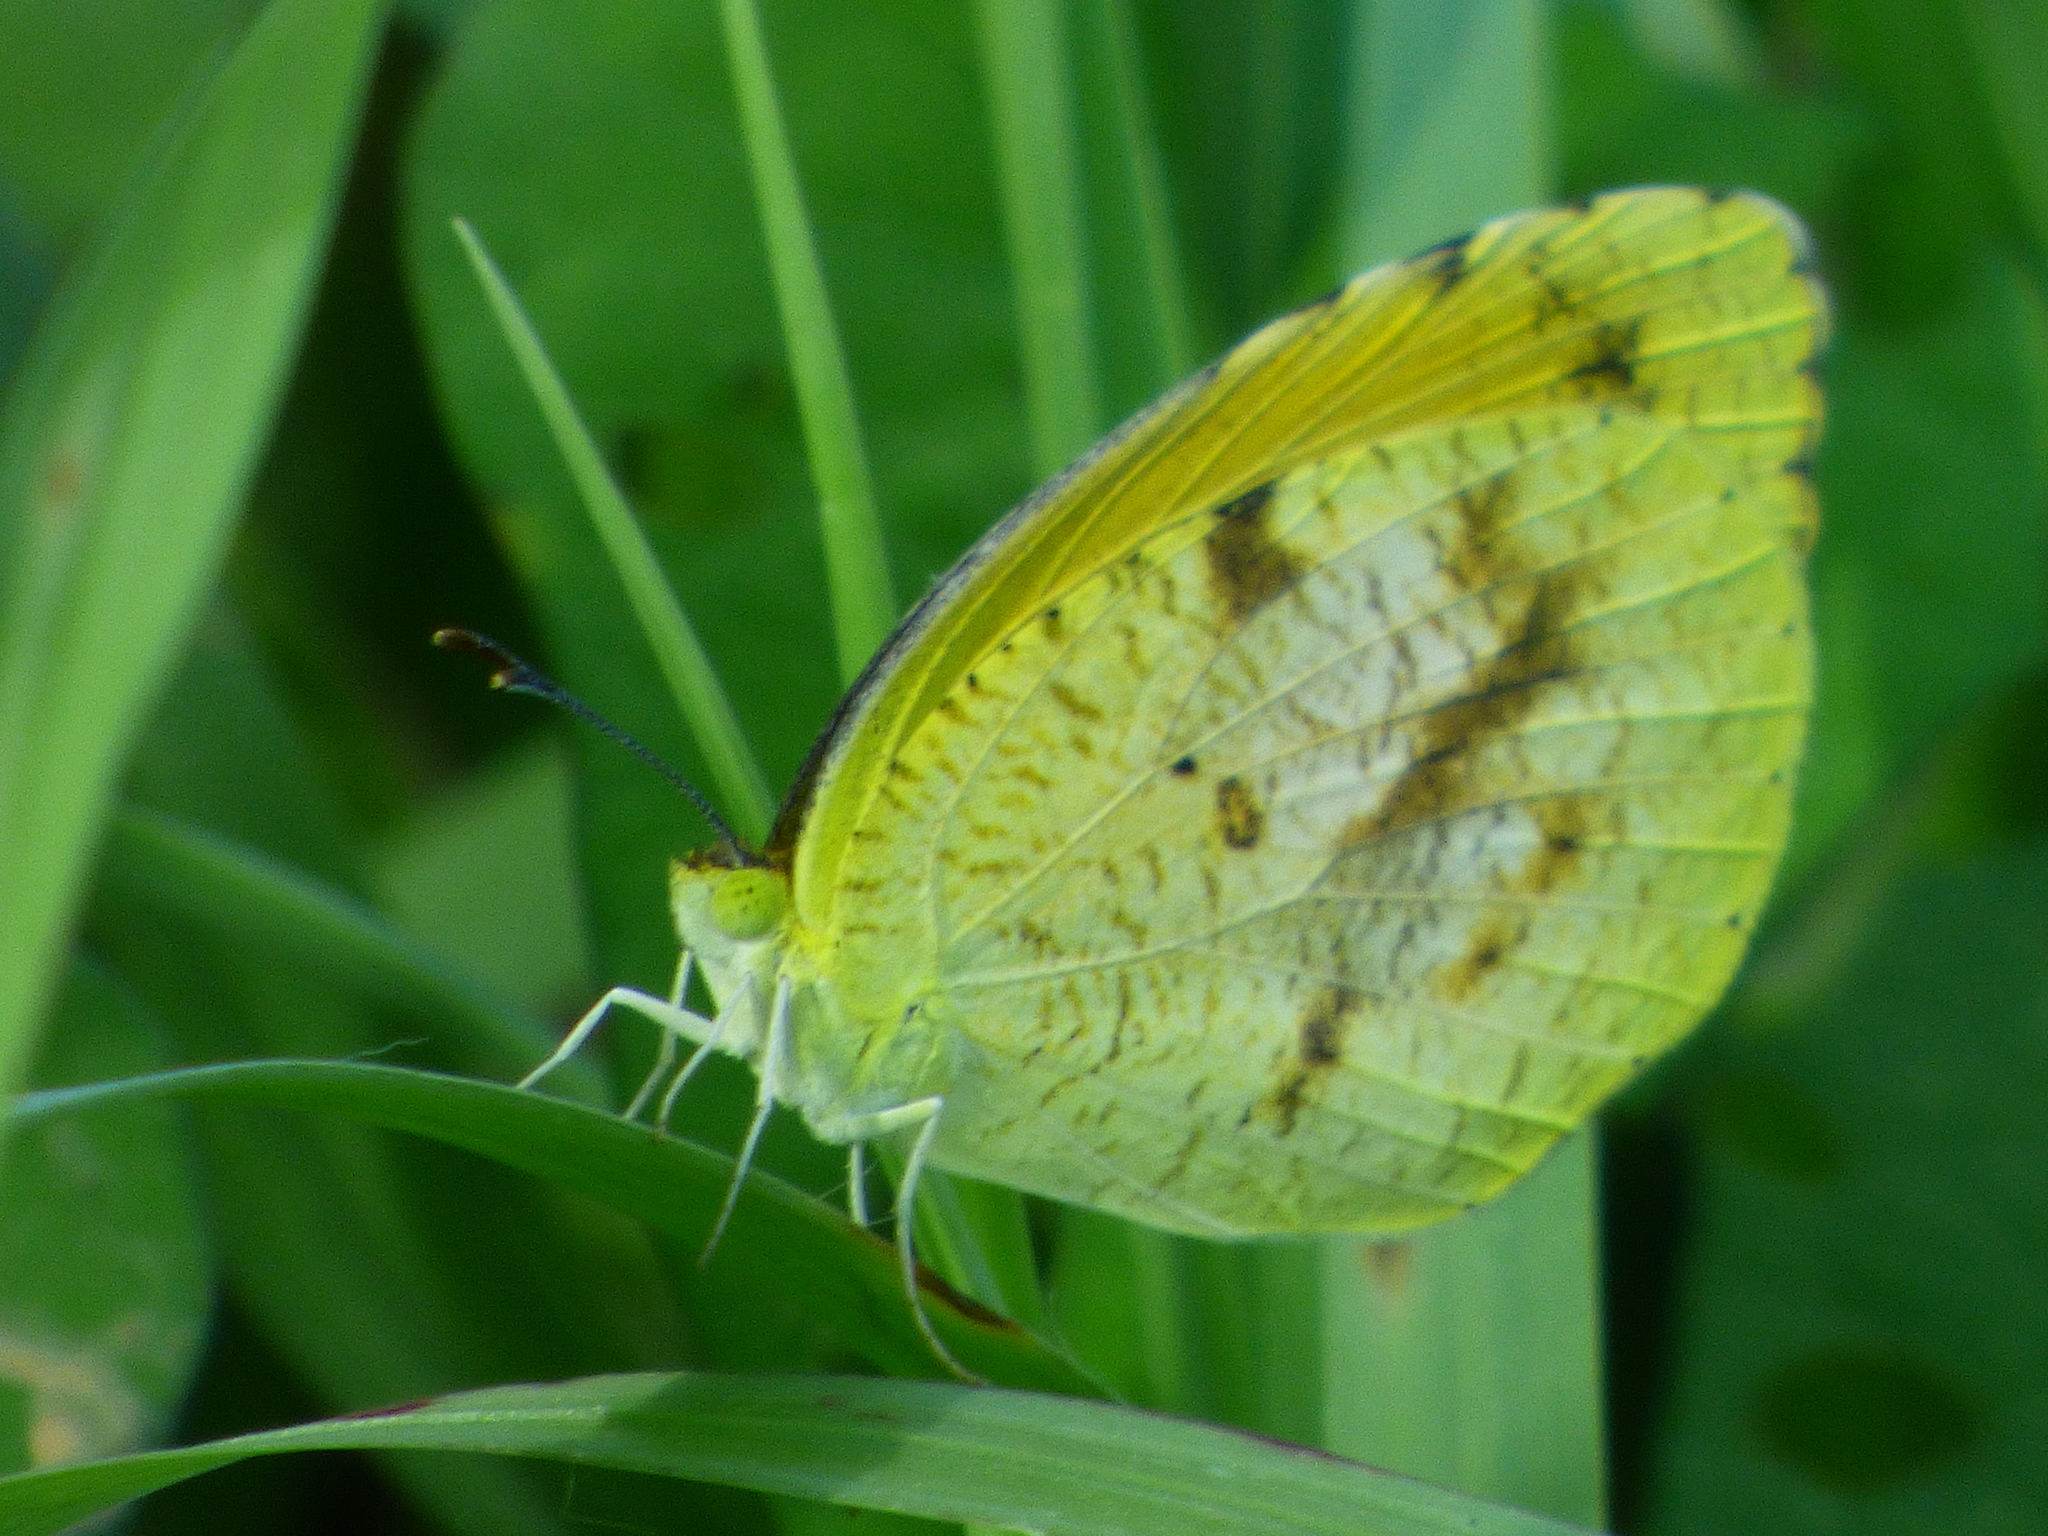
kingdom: Animalia
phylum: Arthropoda
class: Insecta
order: Lepidoptera
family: Pieridae
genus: Abaeis
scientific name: Abaeis nicippe
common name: Sleepy orange
